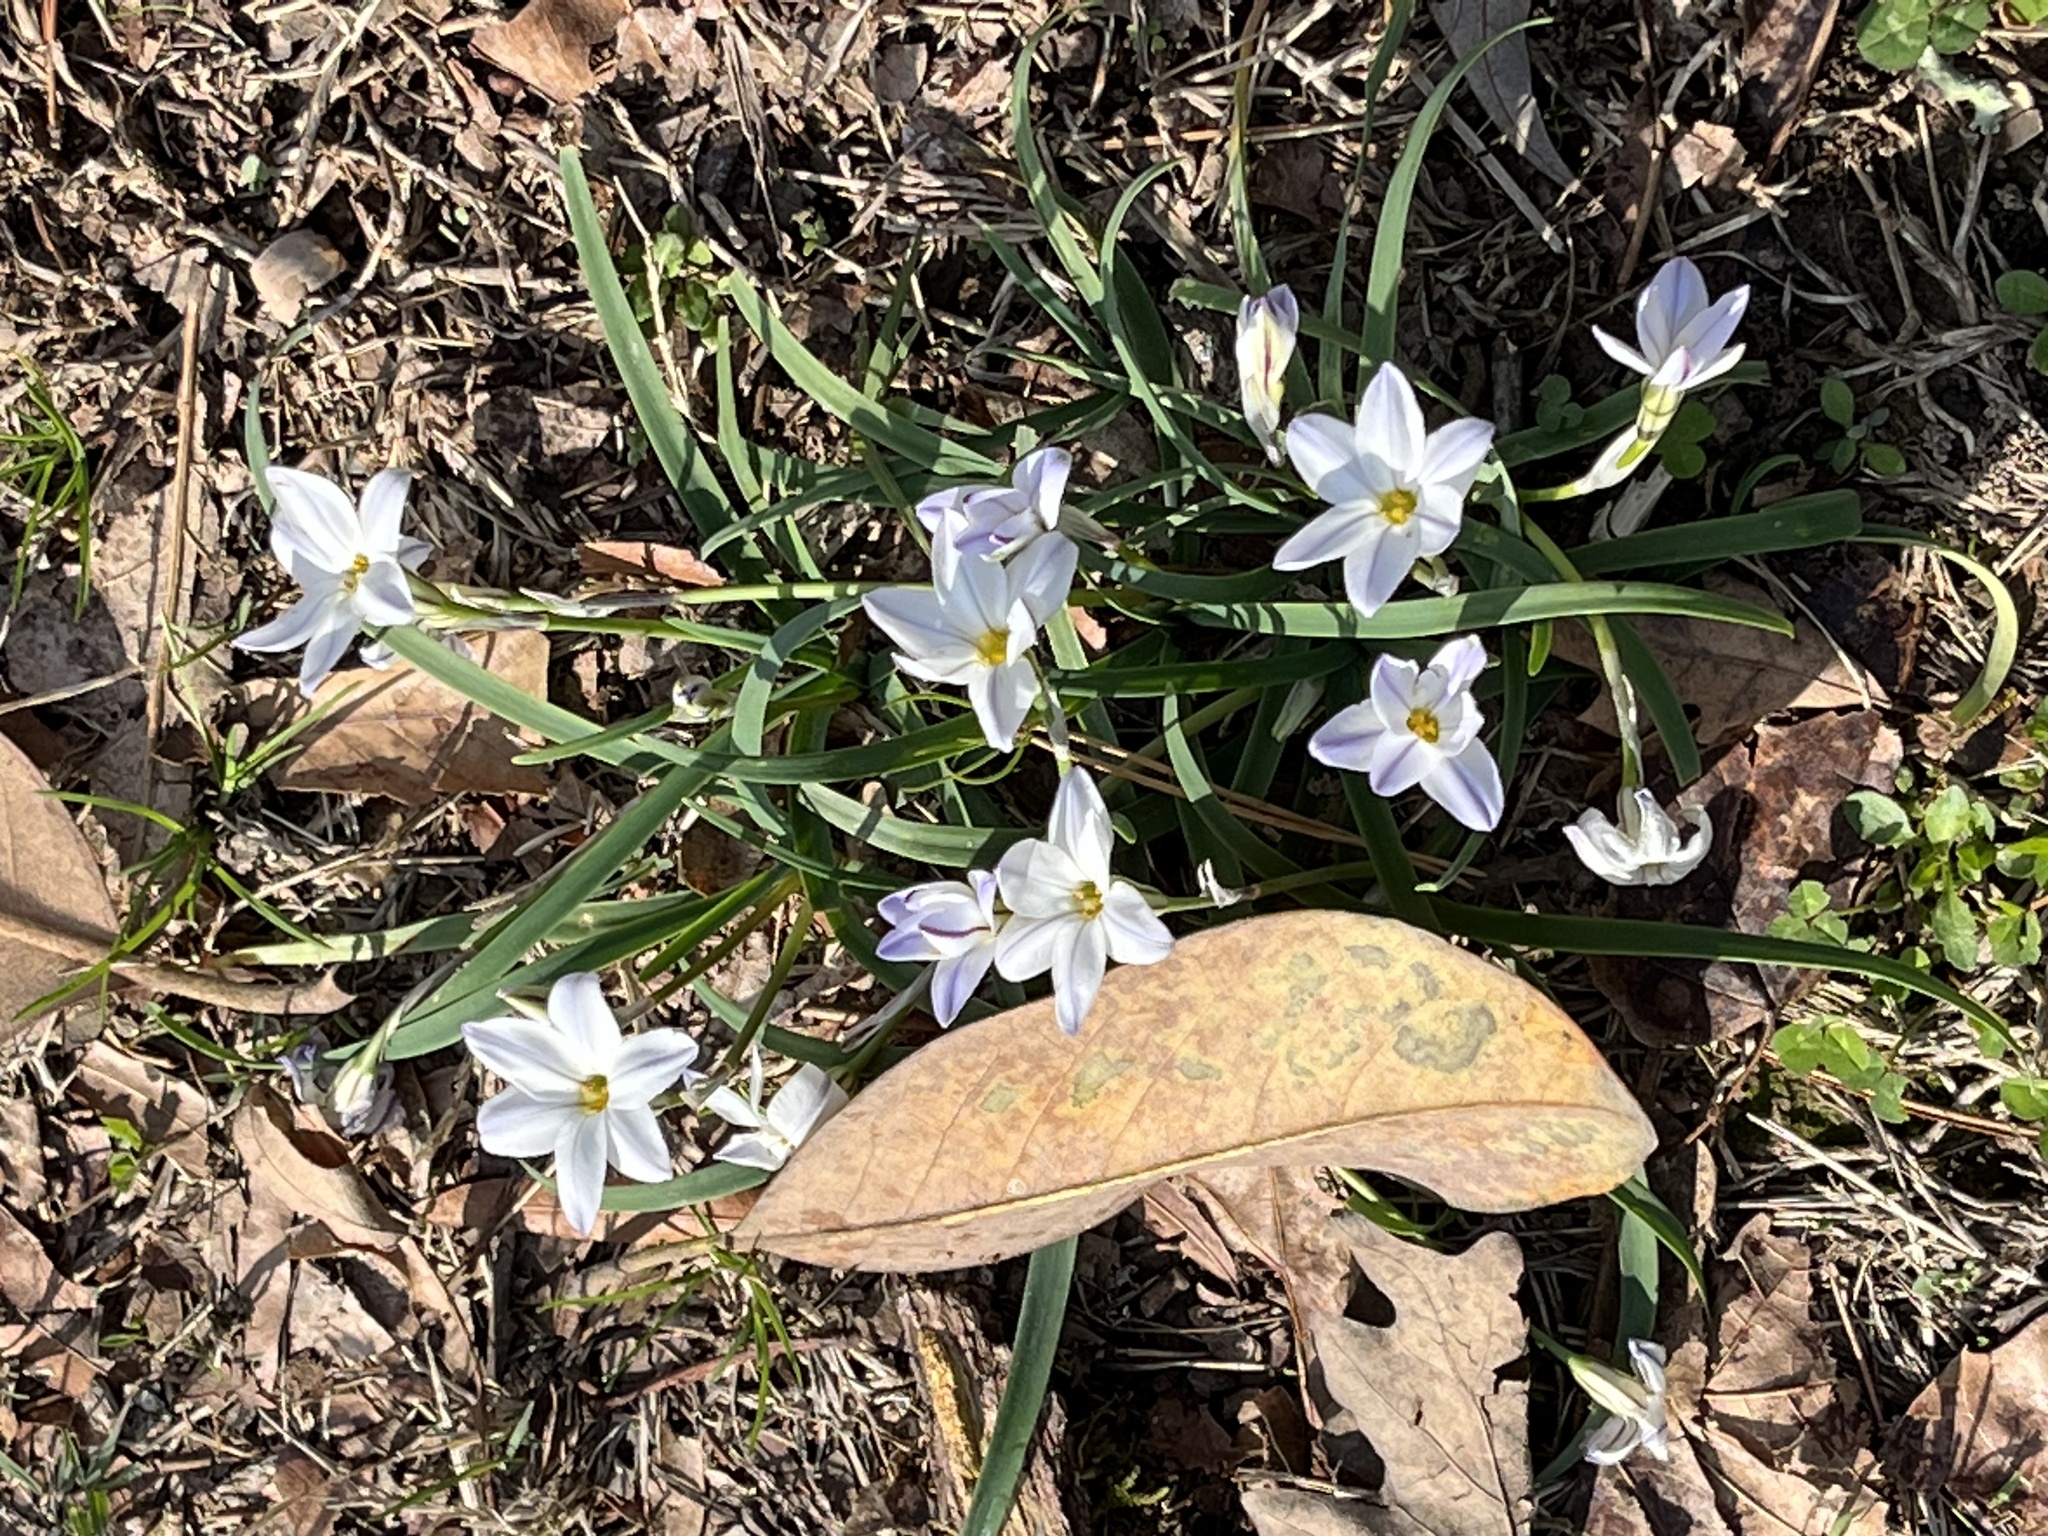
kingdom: Plantae
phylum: Tracheophyta
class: Liliopsida
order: Asparagales
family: Amaryllidaceae
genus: Ipheion
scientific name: Ipheion uniflorum
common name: Spring starflower
